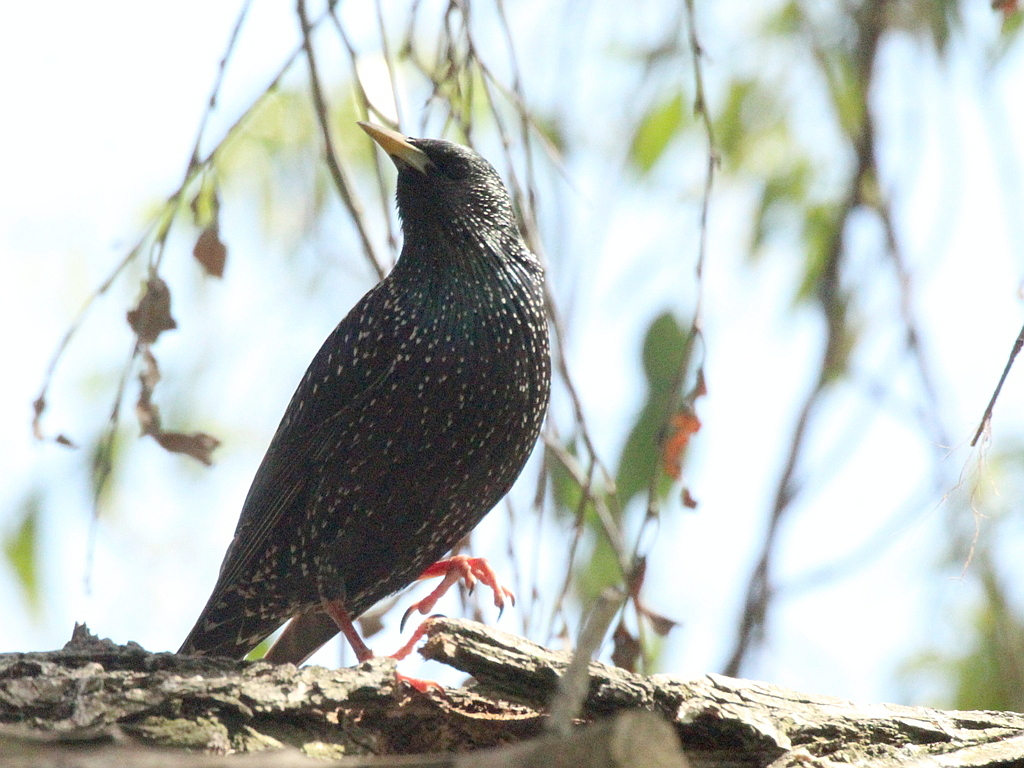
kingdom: Animalia
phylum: Chordata
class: Aves
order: Passeriformes
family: Sturnidae
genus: Sturnus
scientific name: Sturnus vulgaris
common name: Common starling
